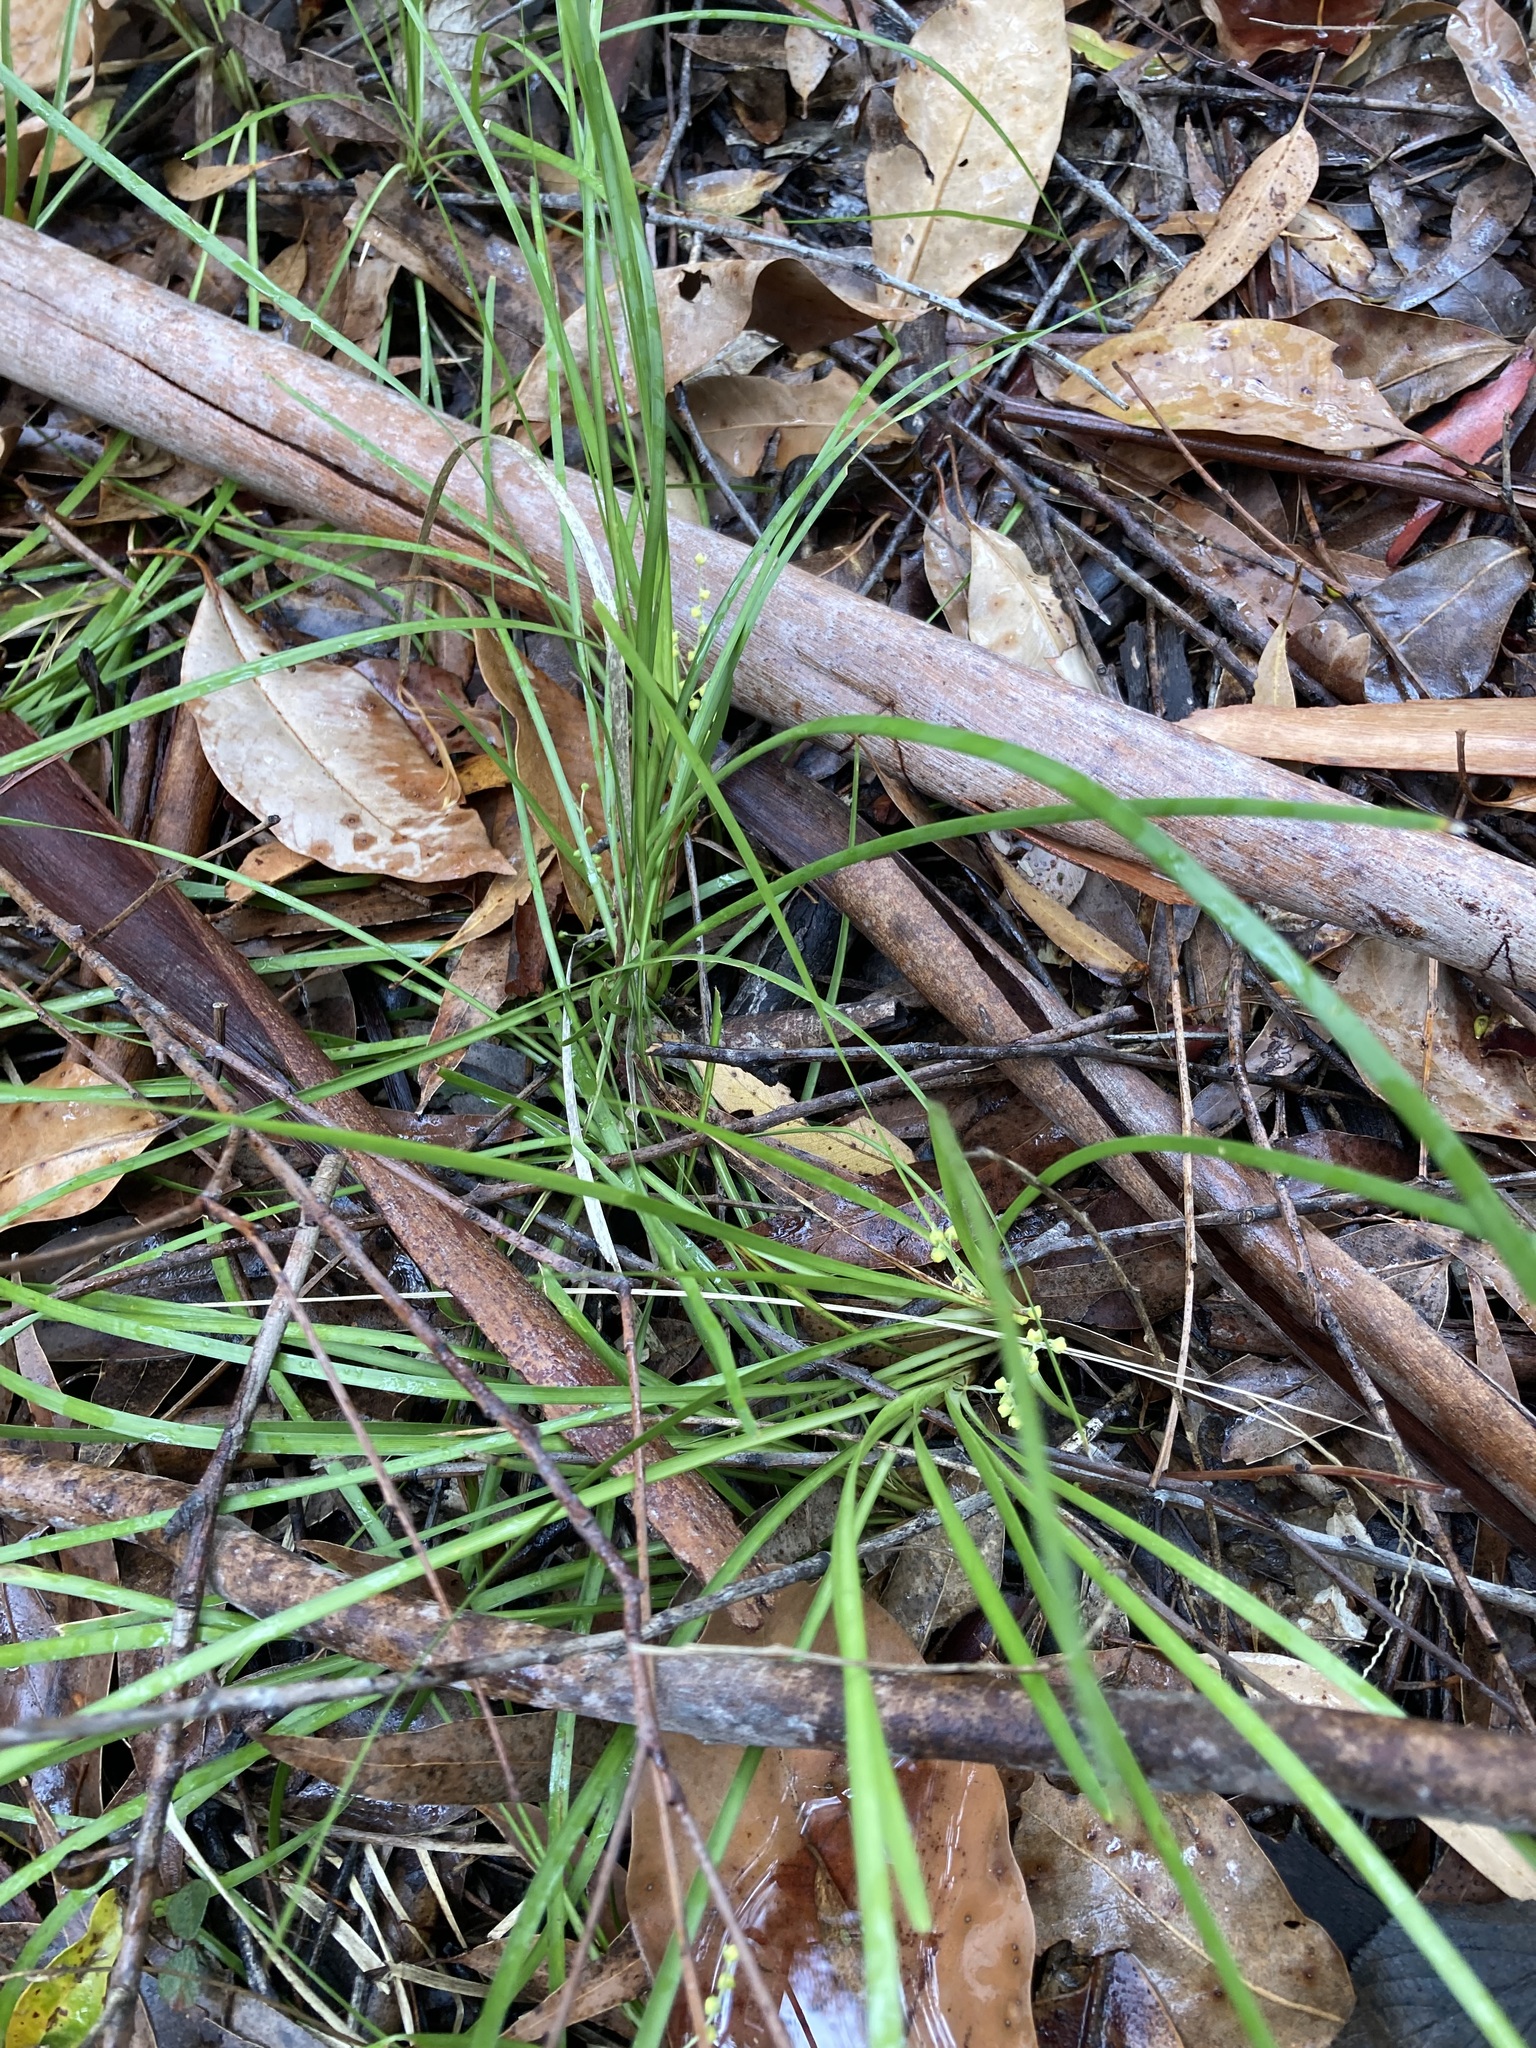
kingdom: Plantae
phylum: Tracheophyta
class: Liliopsida
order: Asparagales
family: Asparagaceae
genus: Lomandra
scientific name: Lomandra filiformis
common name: Wattle mat-rush
